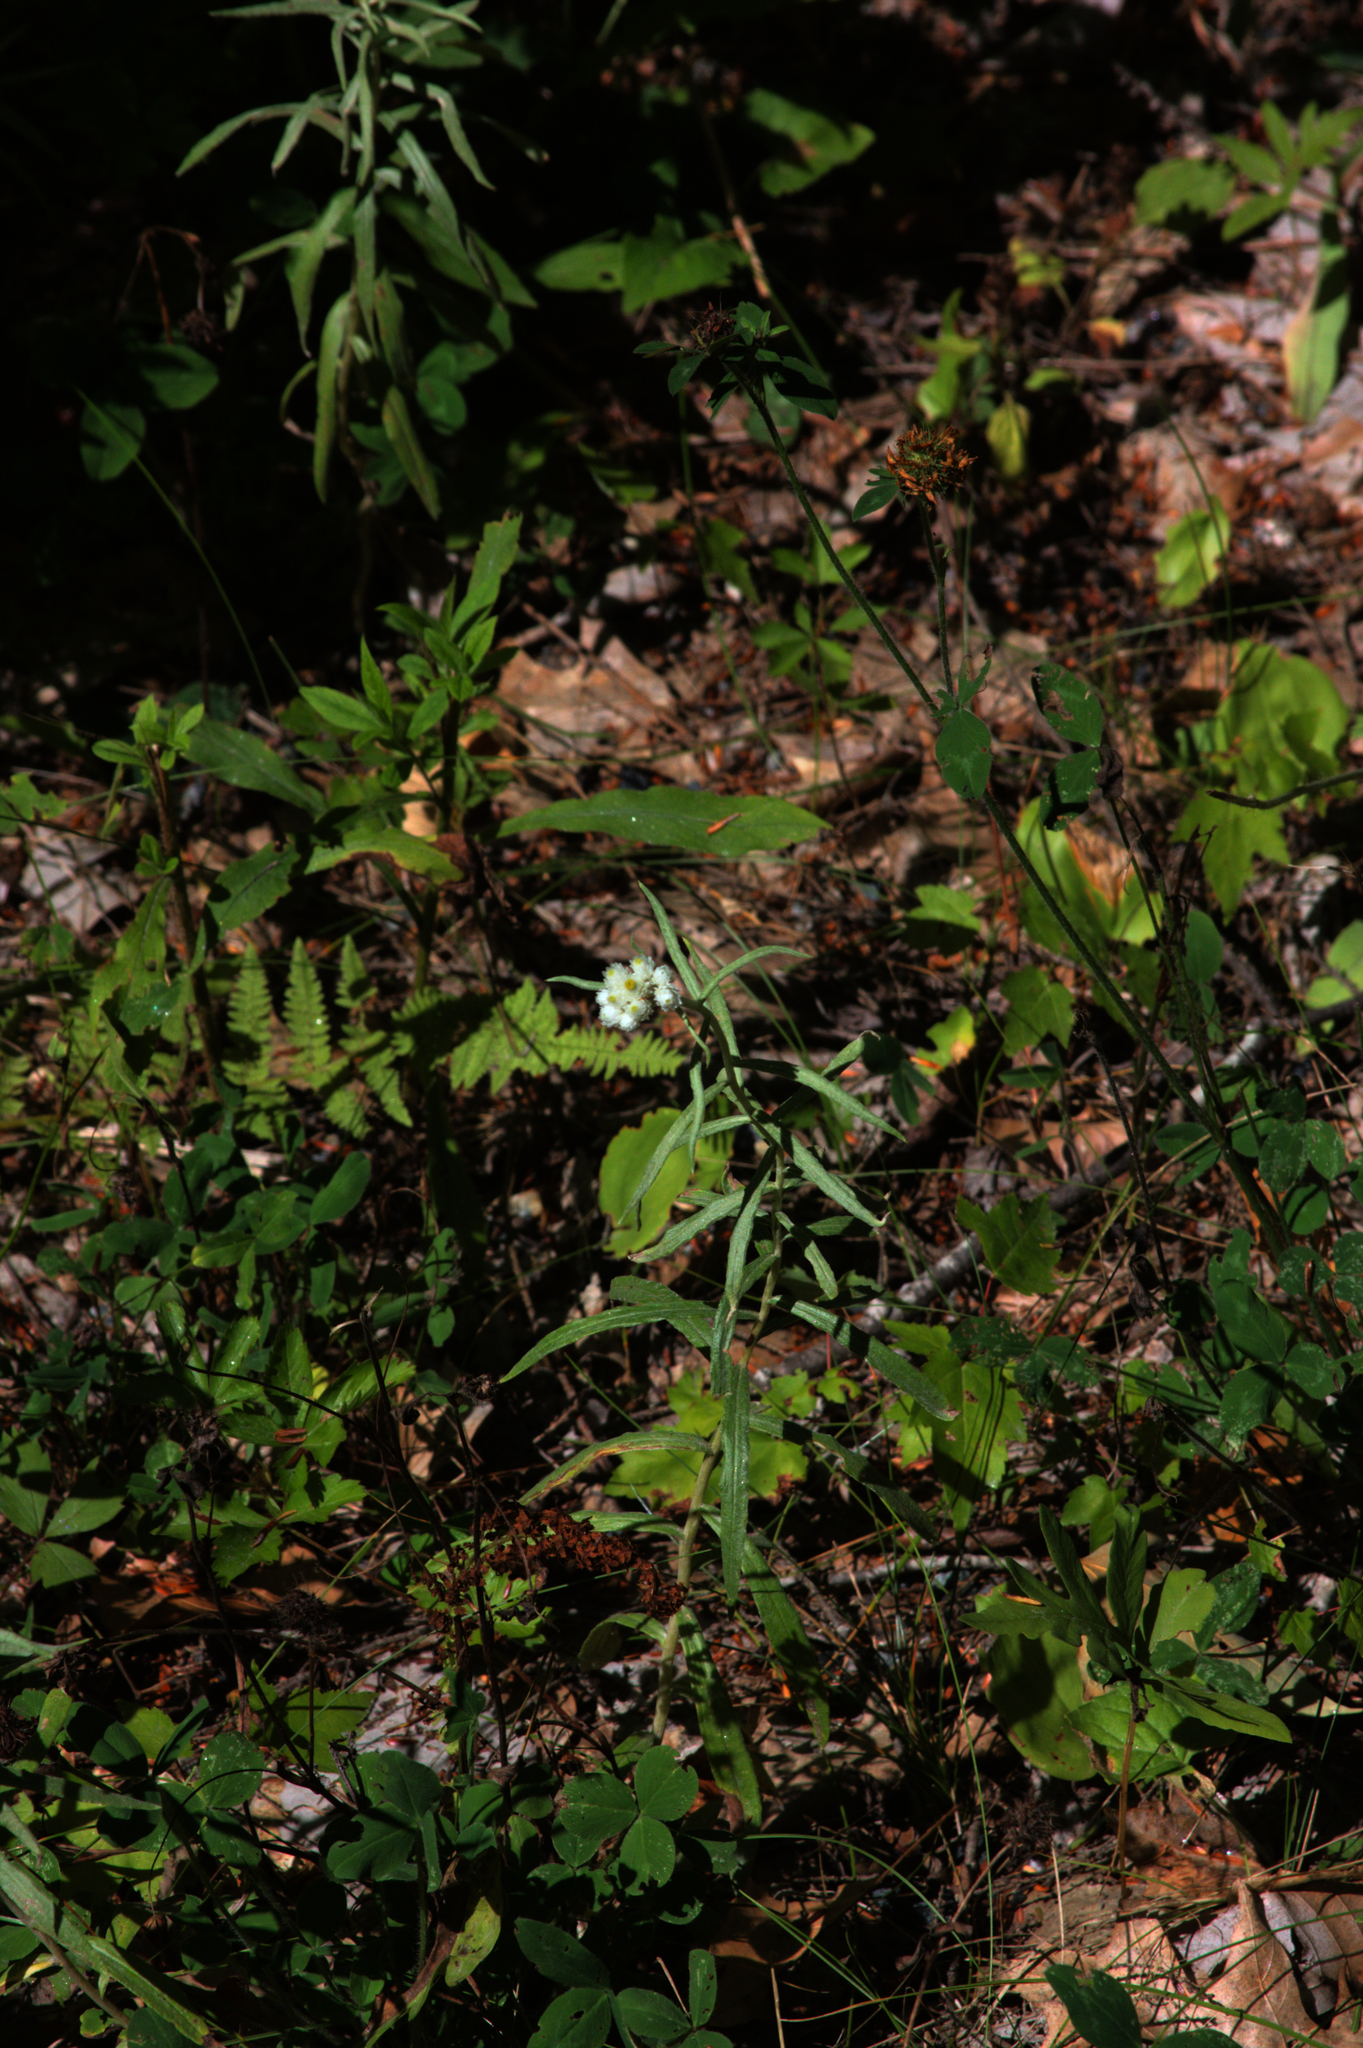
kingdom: Plantae
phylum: Tracheophyta
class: Magnoliopsida
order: Asterales
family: Asteraceae
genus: Anaphalis
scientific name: Anaphalis margaritacea
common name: Pearly everlasting
